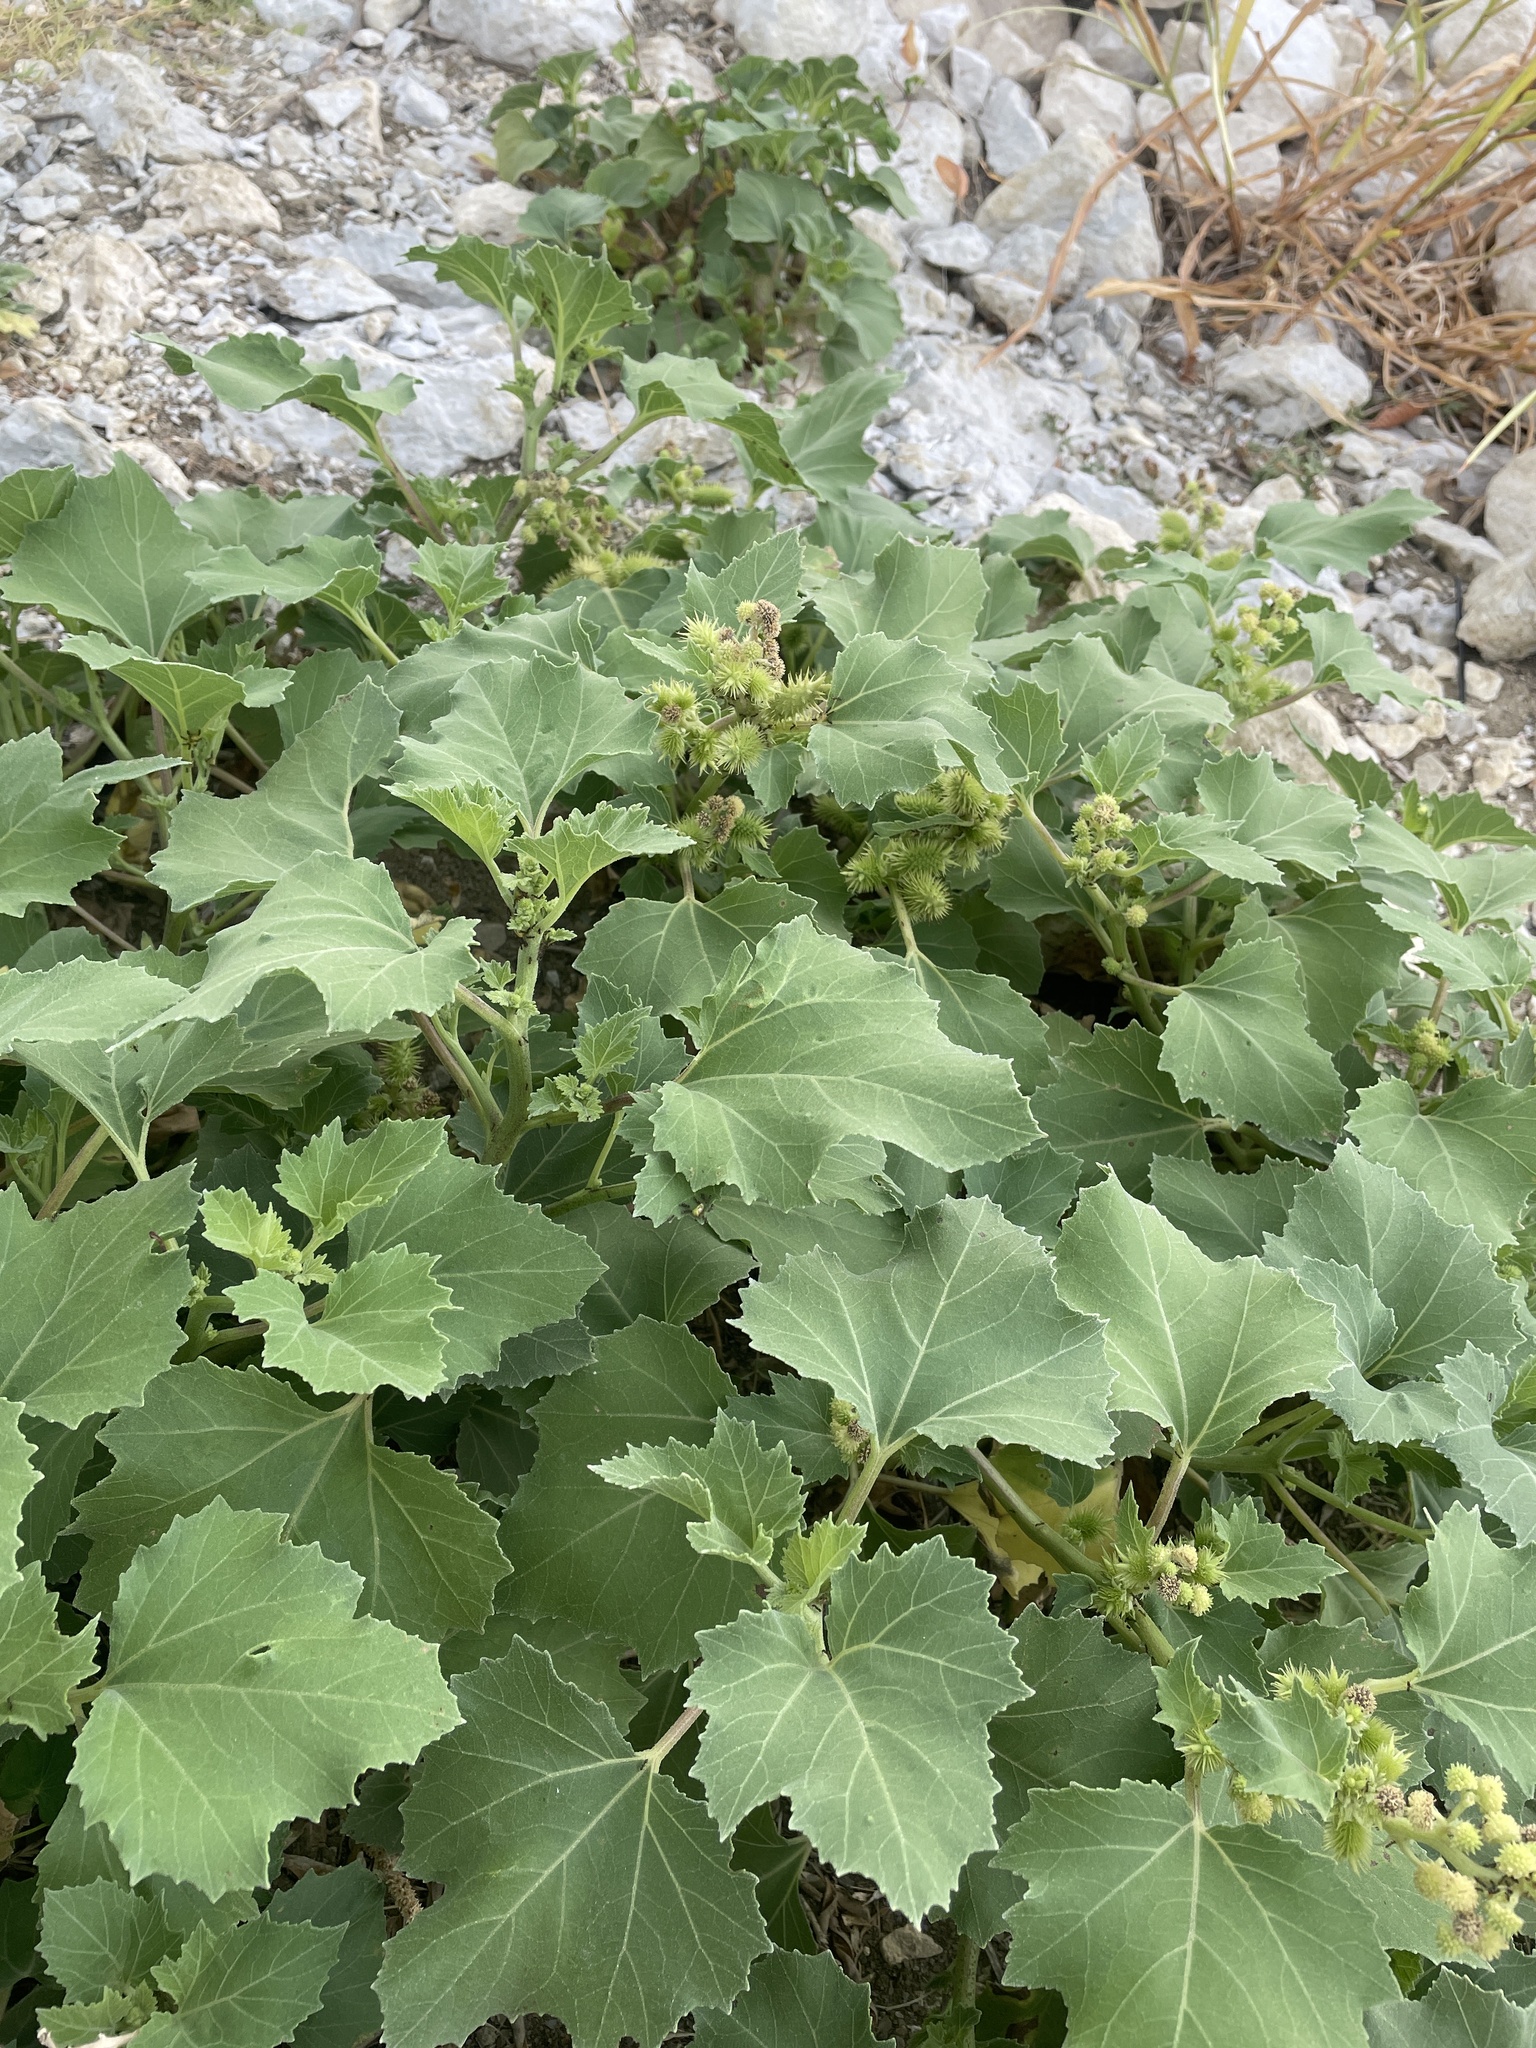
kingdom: Plantae
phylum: Tracheophyta
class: Magnoliopsida
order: Asterales
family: Asteraceae
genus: Xanthium
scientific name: Xanthium strumarium
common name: Rough cocklebur
